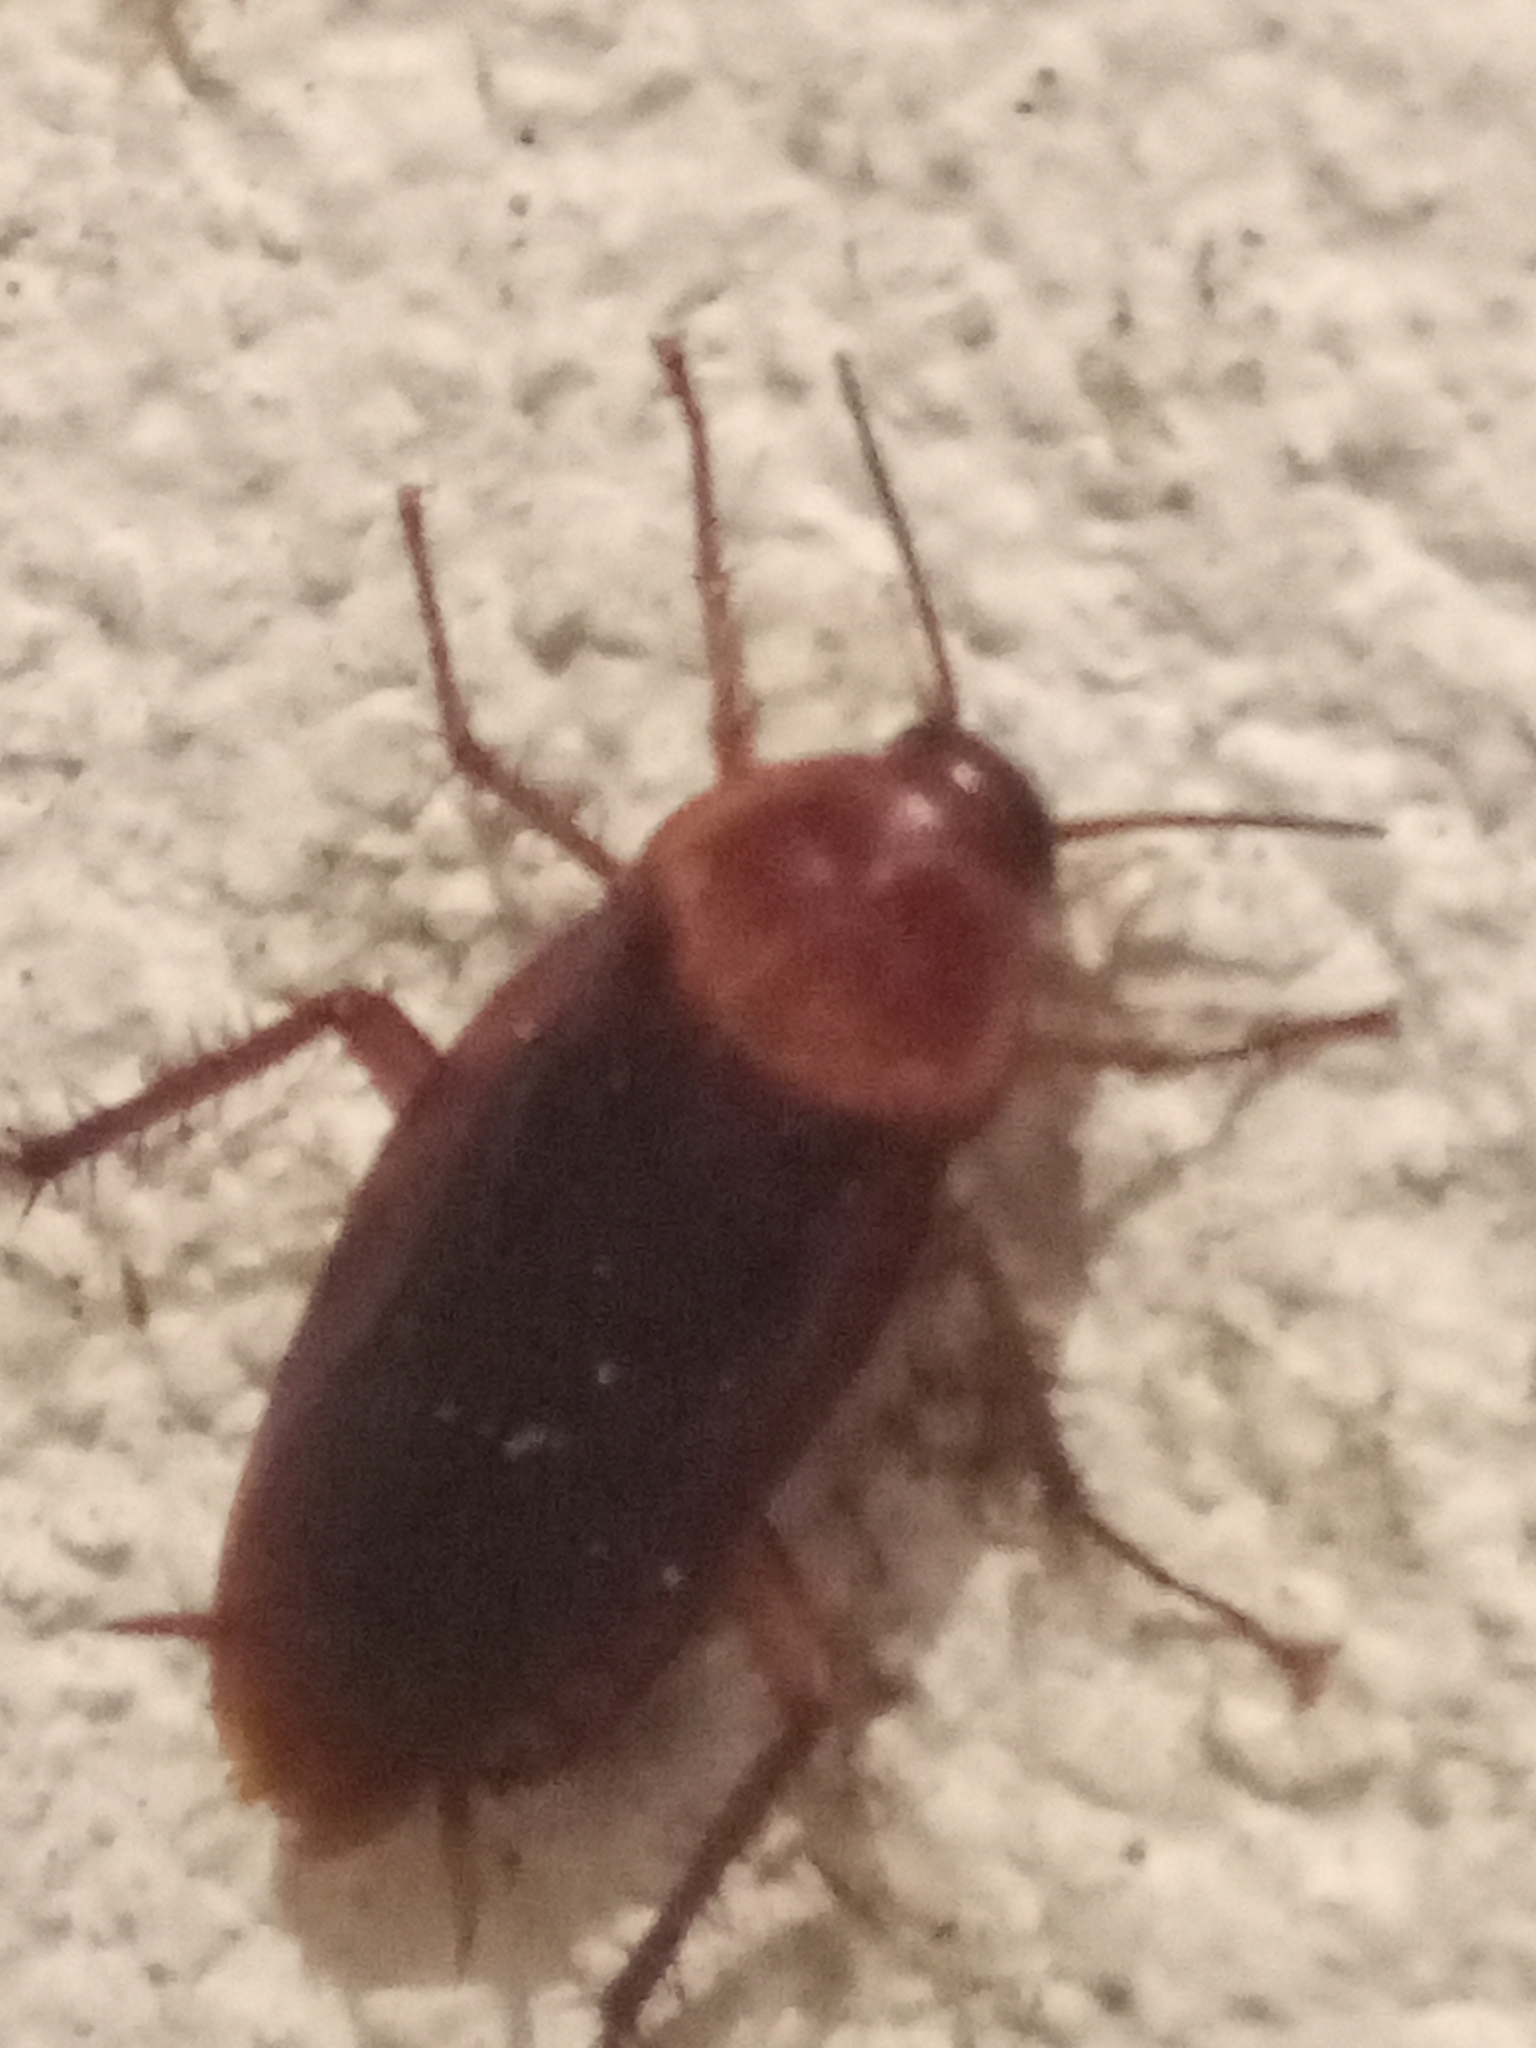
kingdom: Animalia
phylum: Arthropoda
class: Insecta
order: Blattodea
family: Blattidae
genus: Periplaneta
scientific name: Periplaneta americana
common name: American cockroach
